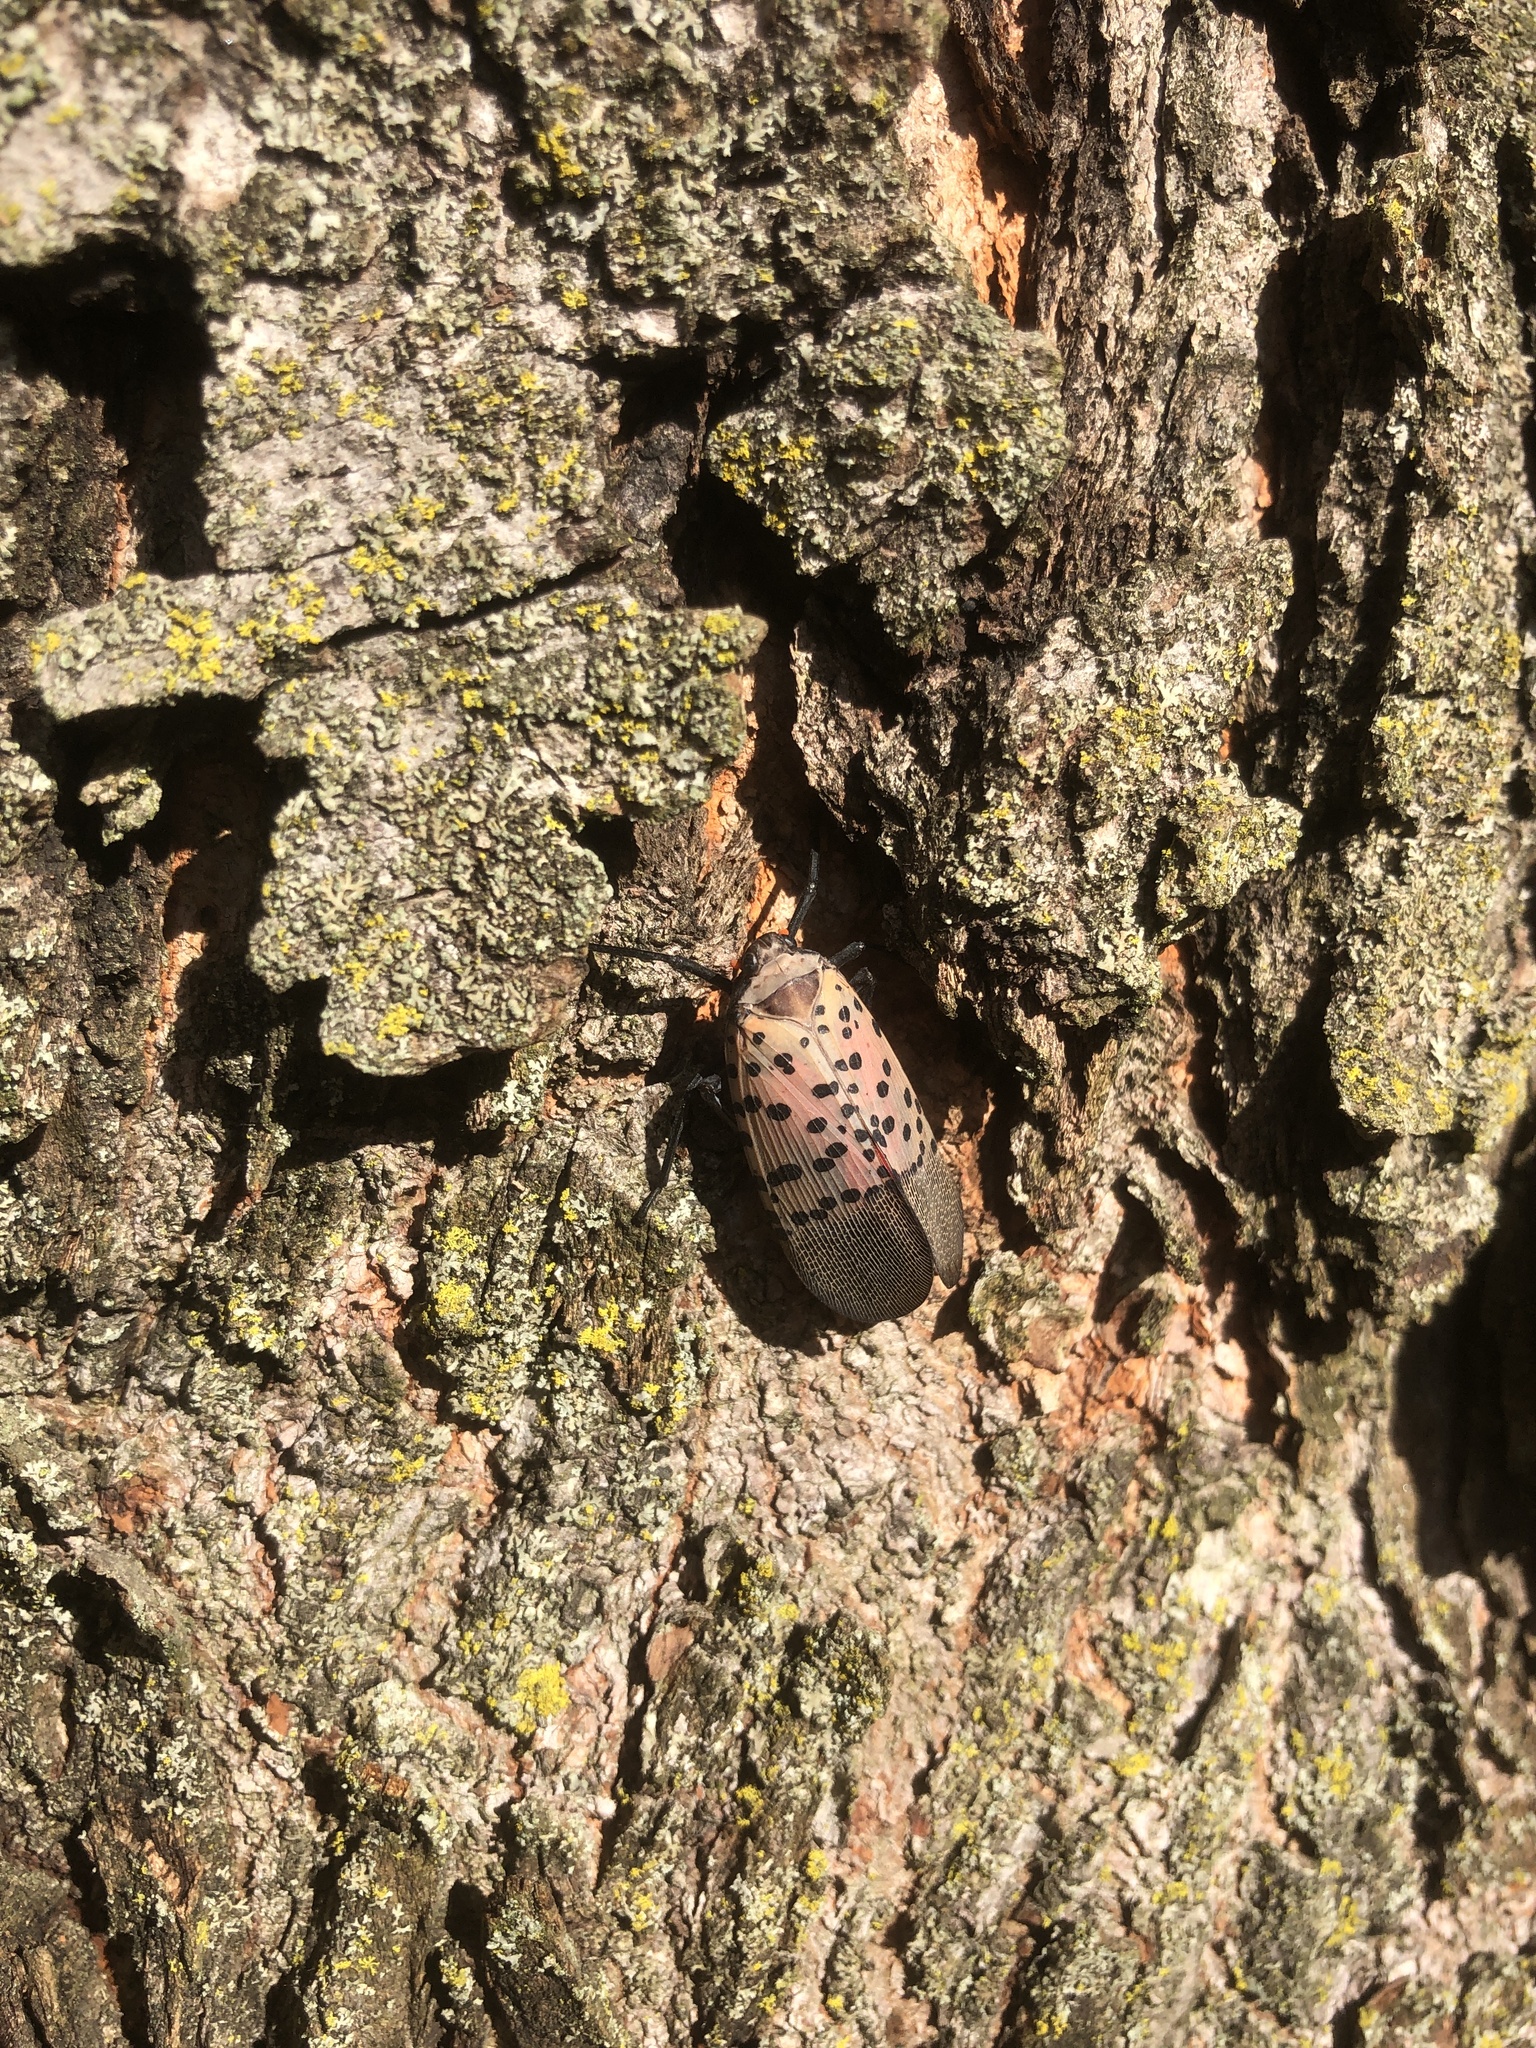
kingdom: Animalia
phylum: Arthropoda
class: Insecta
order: Hemiptera
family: Fulgoridae
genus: Lycorma
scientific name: Lycorma delicatula
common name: Spotted lanternfly
